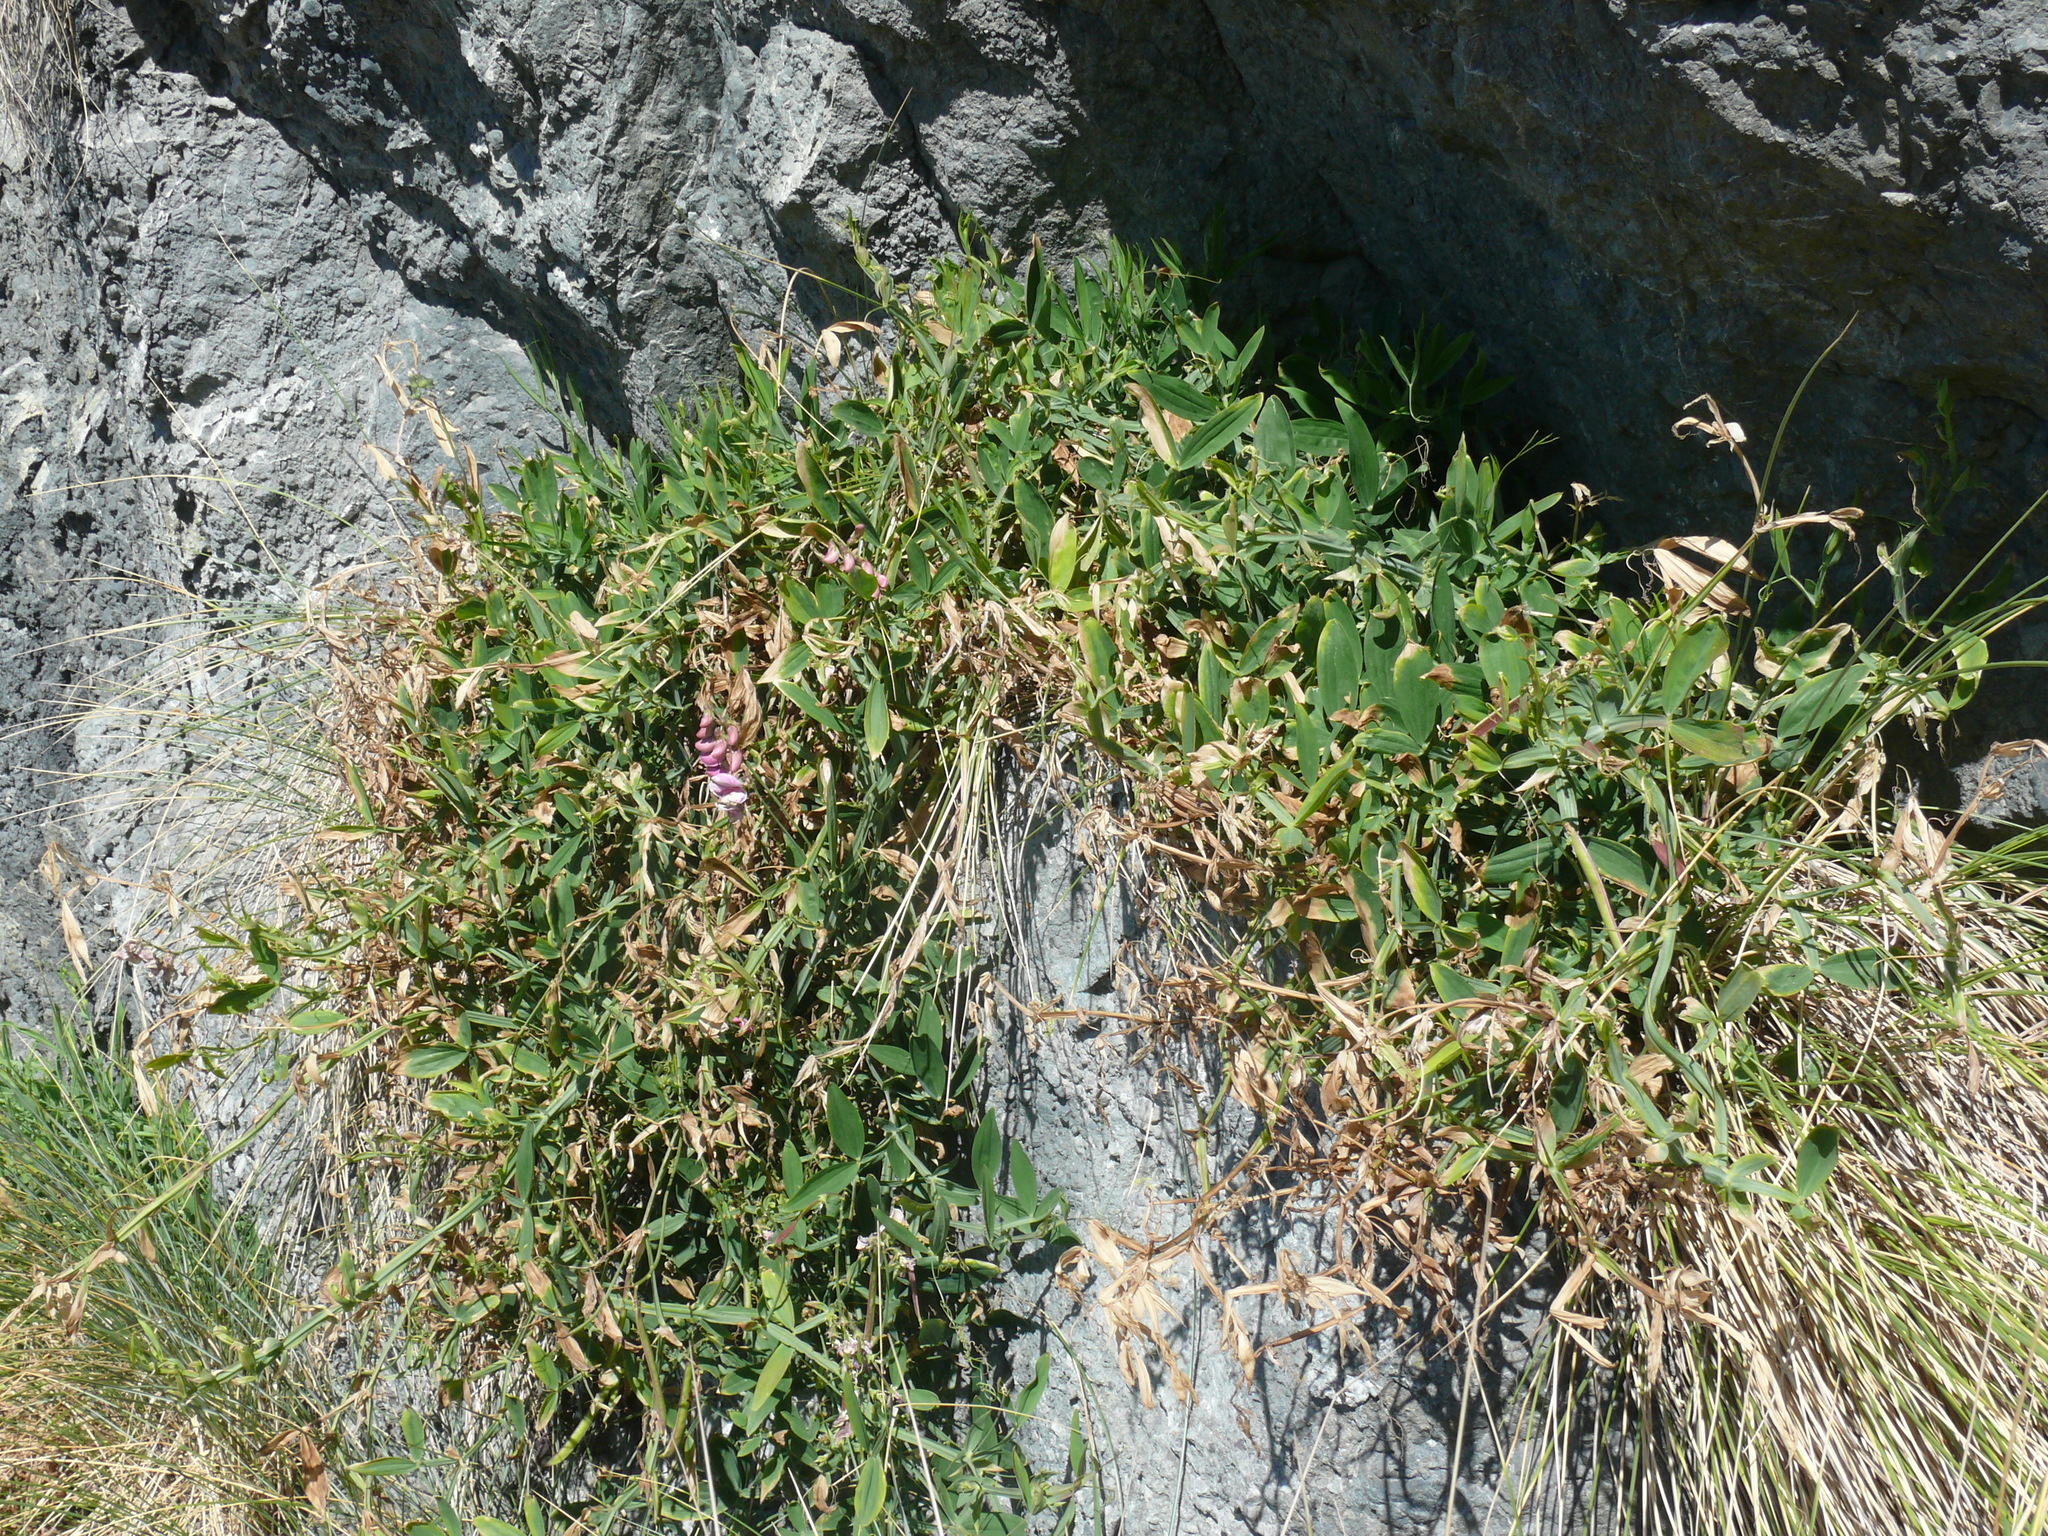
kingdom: Plantae
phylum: Tracheophyta
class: Magnoliopsida
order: Fabales
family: Fabaceae
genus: Lathyrus
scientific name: Lathyrus latifolius
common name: Perennial pea
